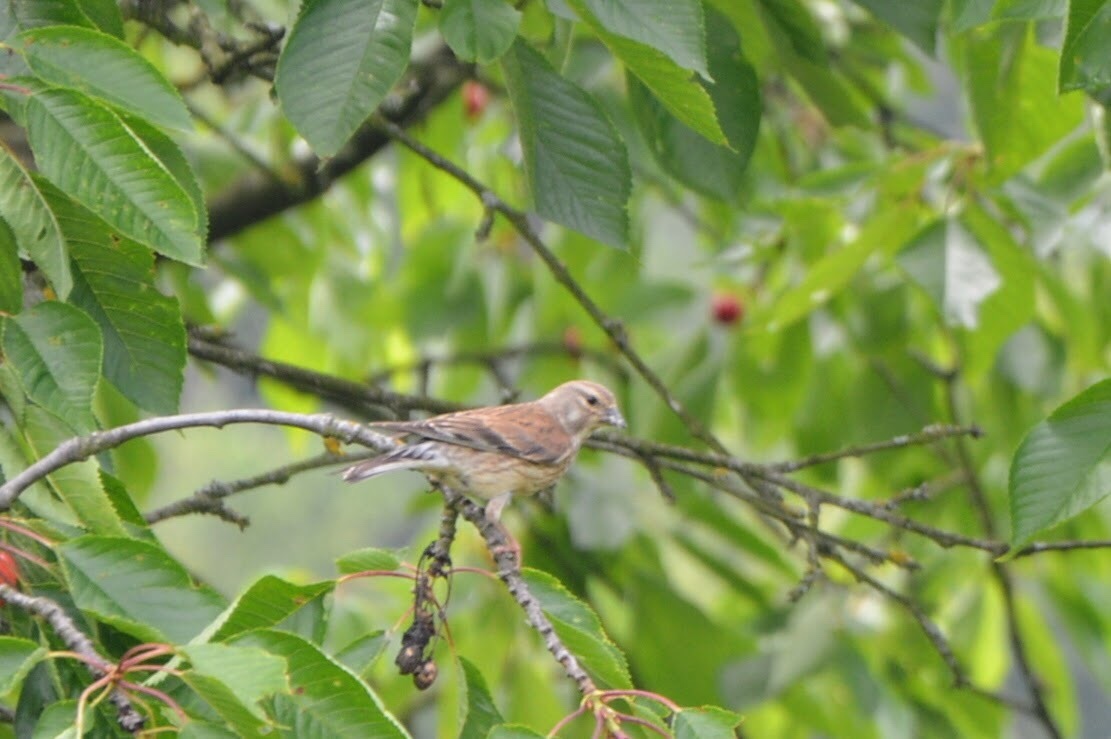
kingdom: Animalia
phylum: Chordata
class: Aves
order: Passeriformes
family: Fringillidae
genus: Linaria
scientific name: Linaria cannabina
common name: Common linnet
